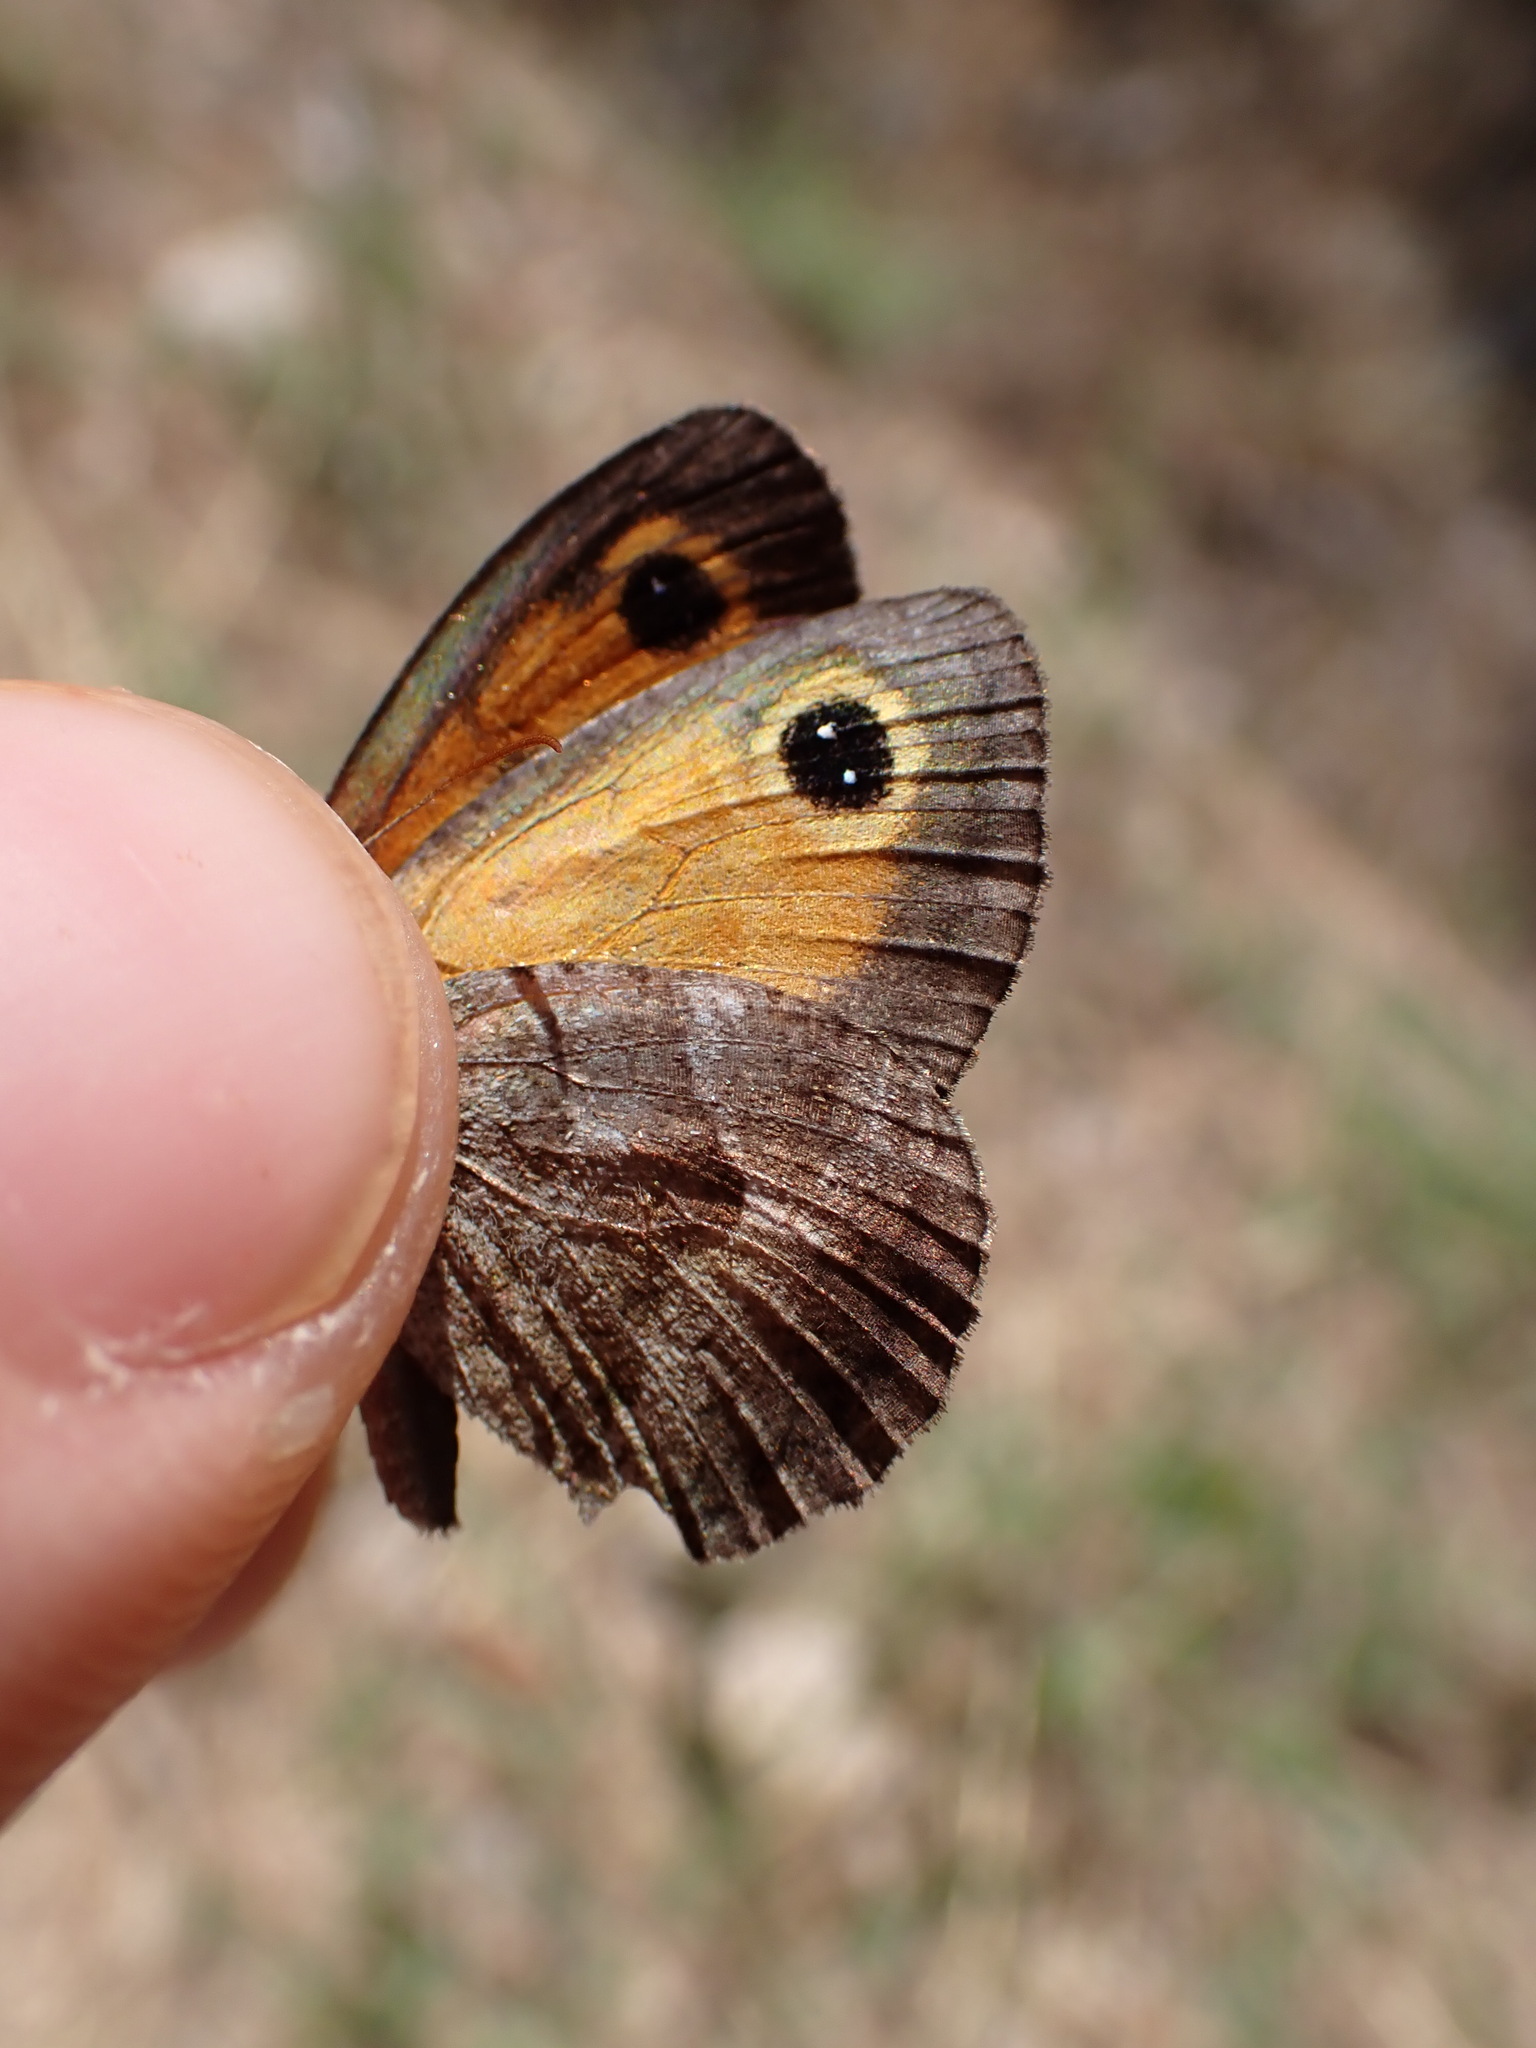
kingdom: Animalia
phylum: Arthropoda
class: Insecta
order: Lepidoptera
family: Nymphalidae
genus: Pyronia
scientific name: Pyronia cecilia
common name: Southern gatekeeper
